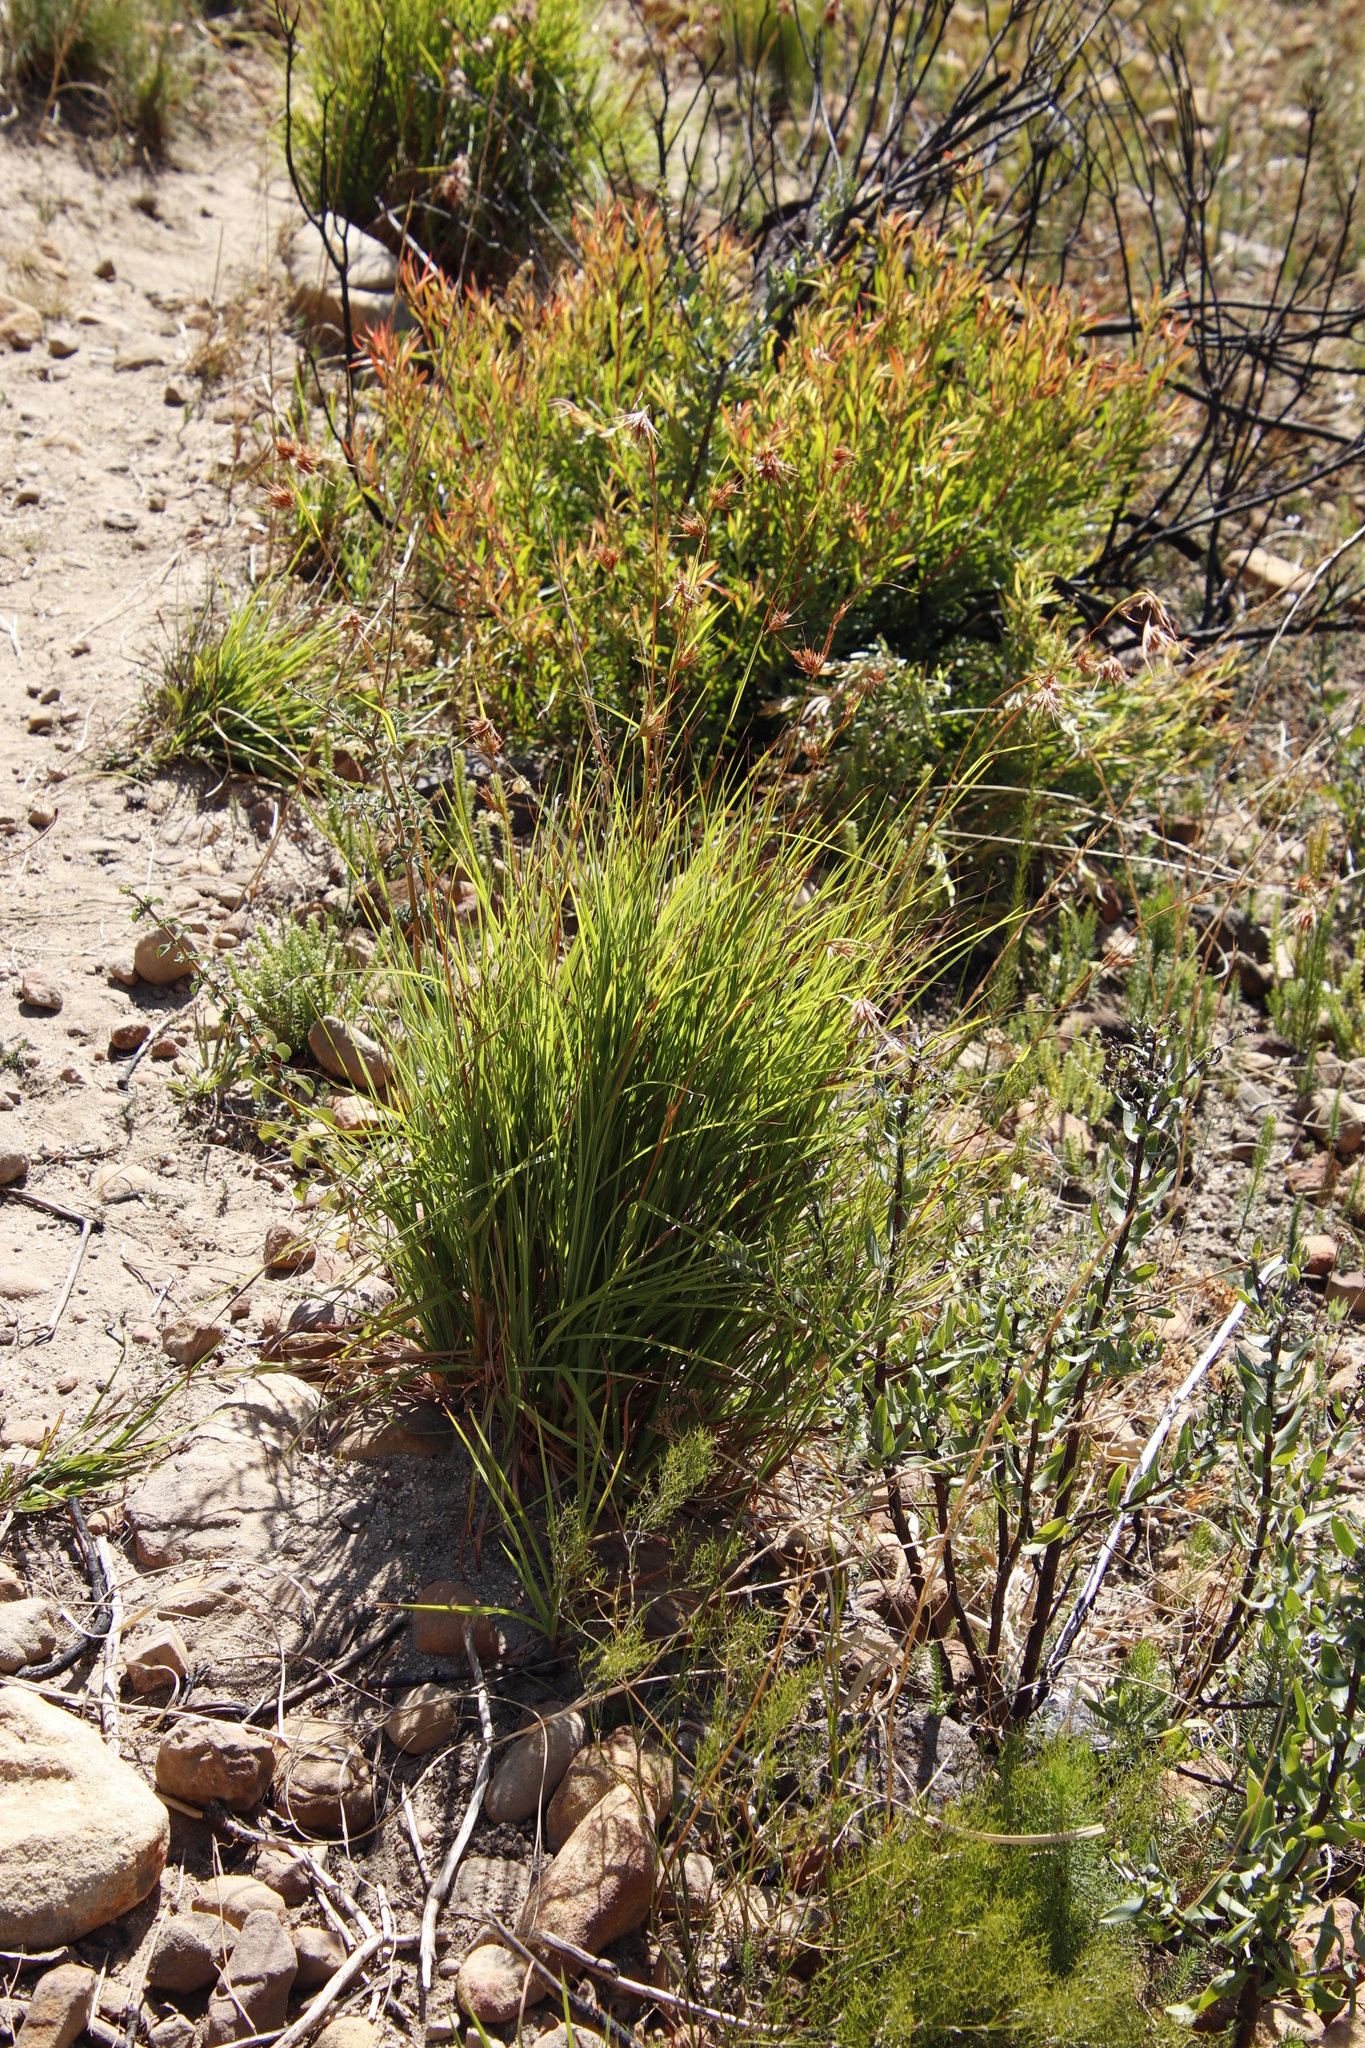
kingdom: Plantae
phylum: Tracheophyta
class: Liliopsida
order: Poales
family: Poaceae
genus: Themeda
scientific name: Themeda triandra
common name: Kangaroo grass
